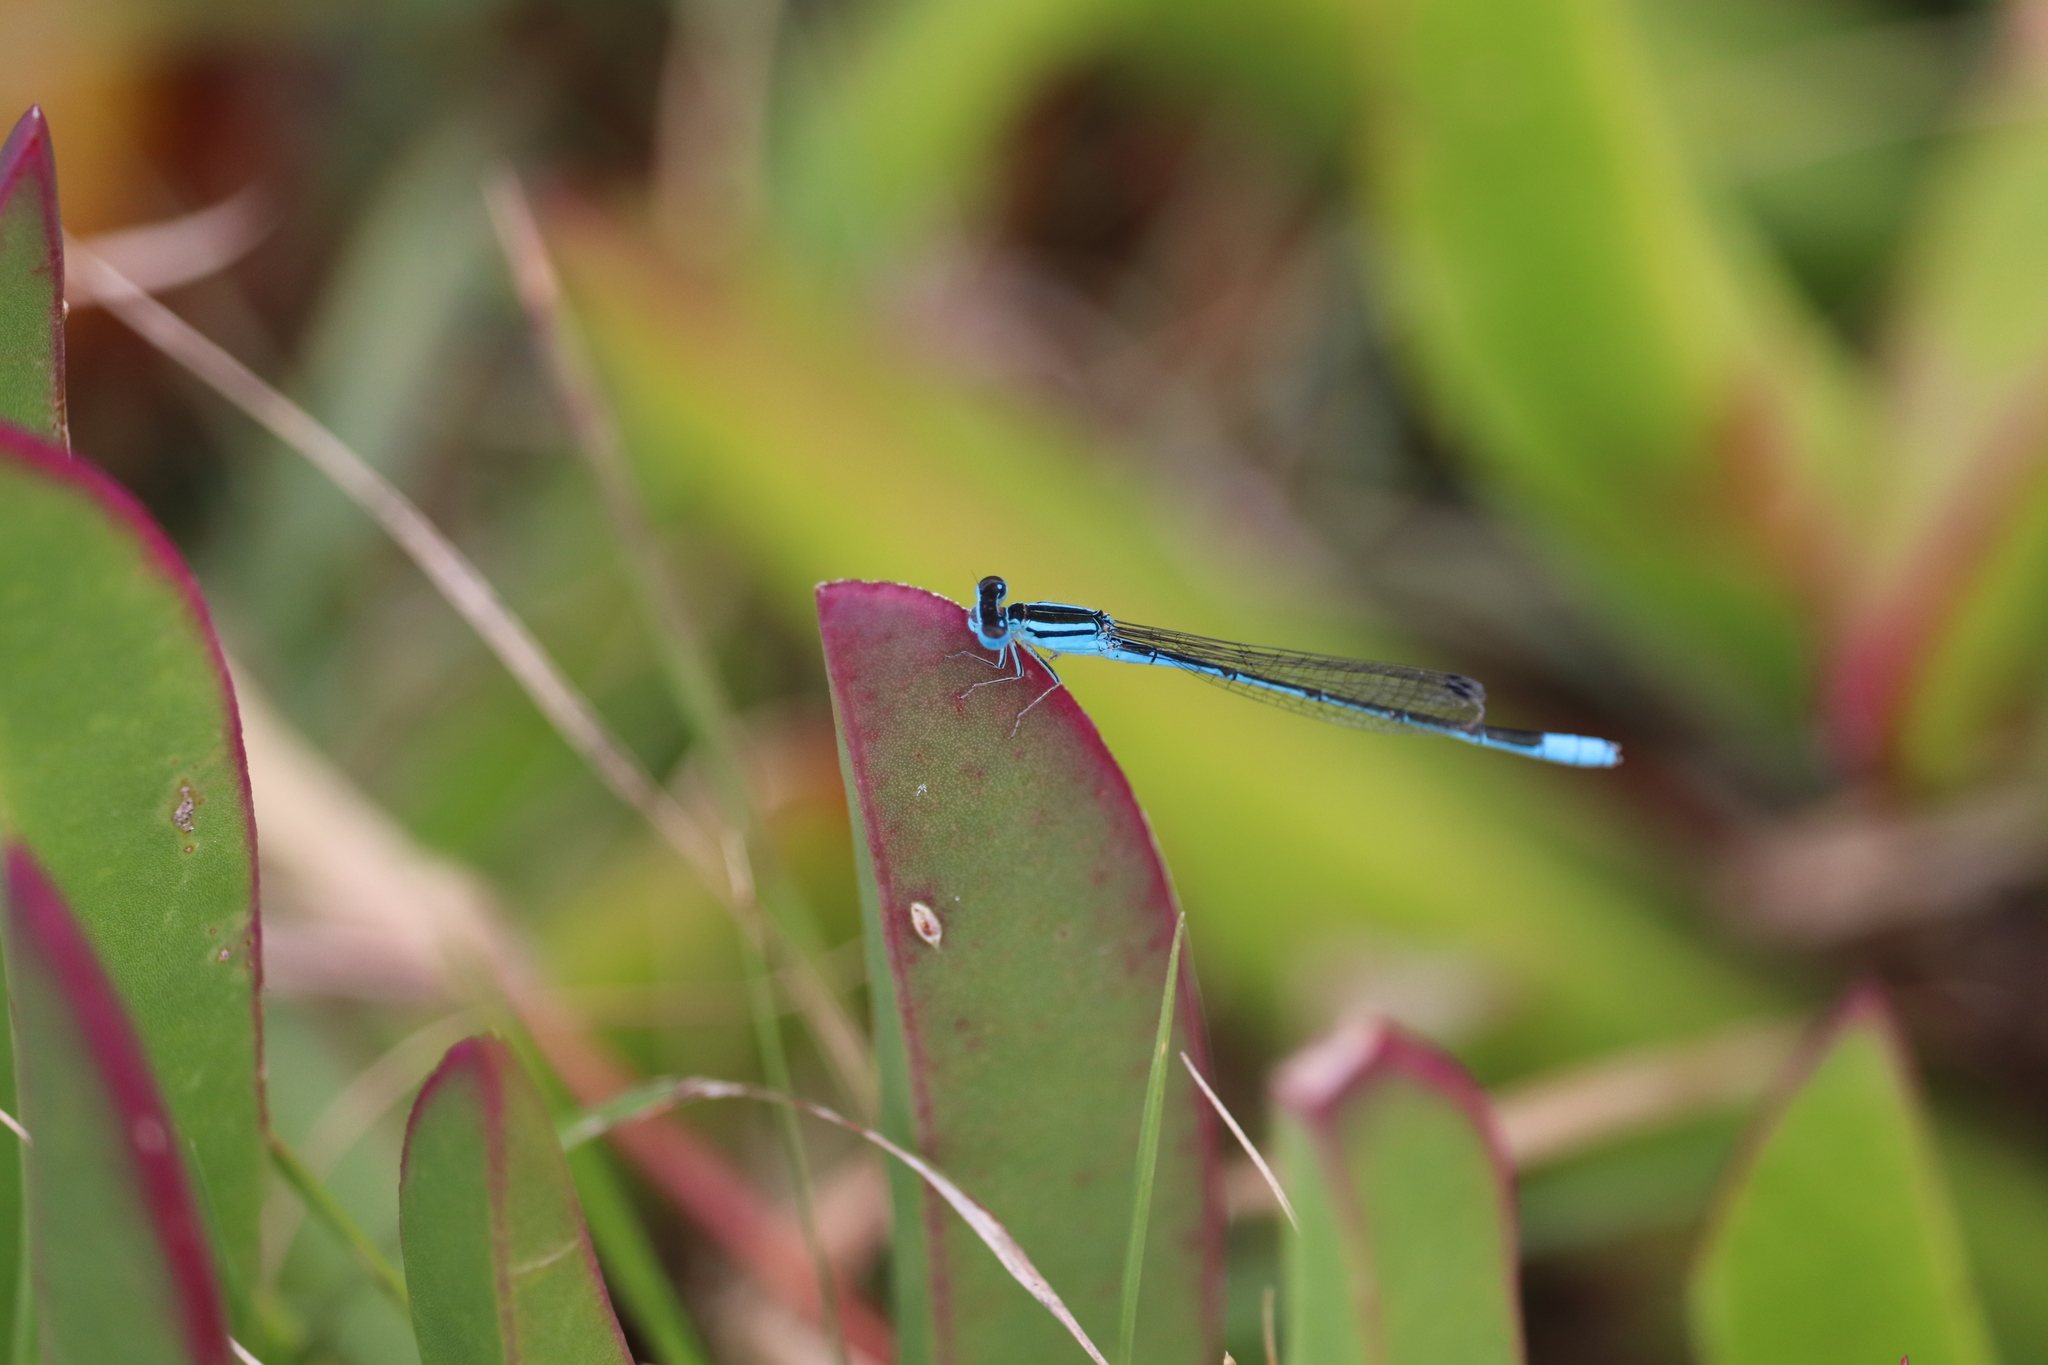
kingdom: Animalia
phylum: Arthropoda
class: Insecta
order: Odonata
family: Coenagrionidae
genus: Africallagma
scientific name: Africallagma glaucum
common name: Swamp bluet
